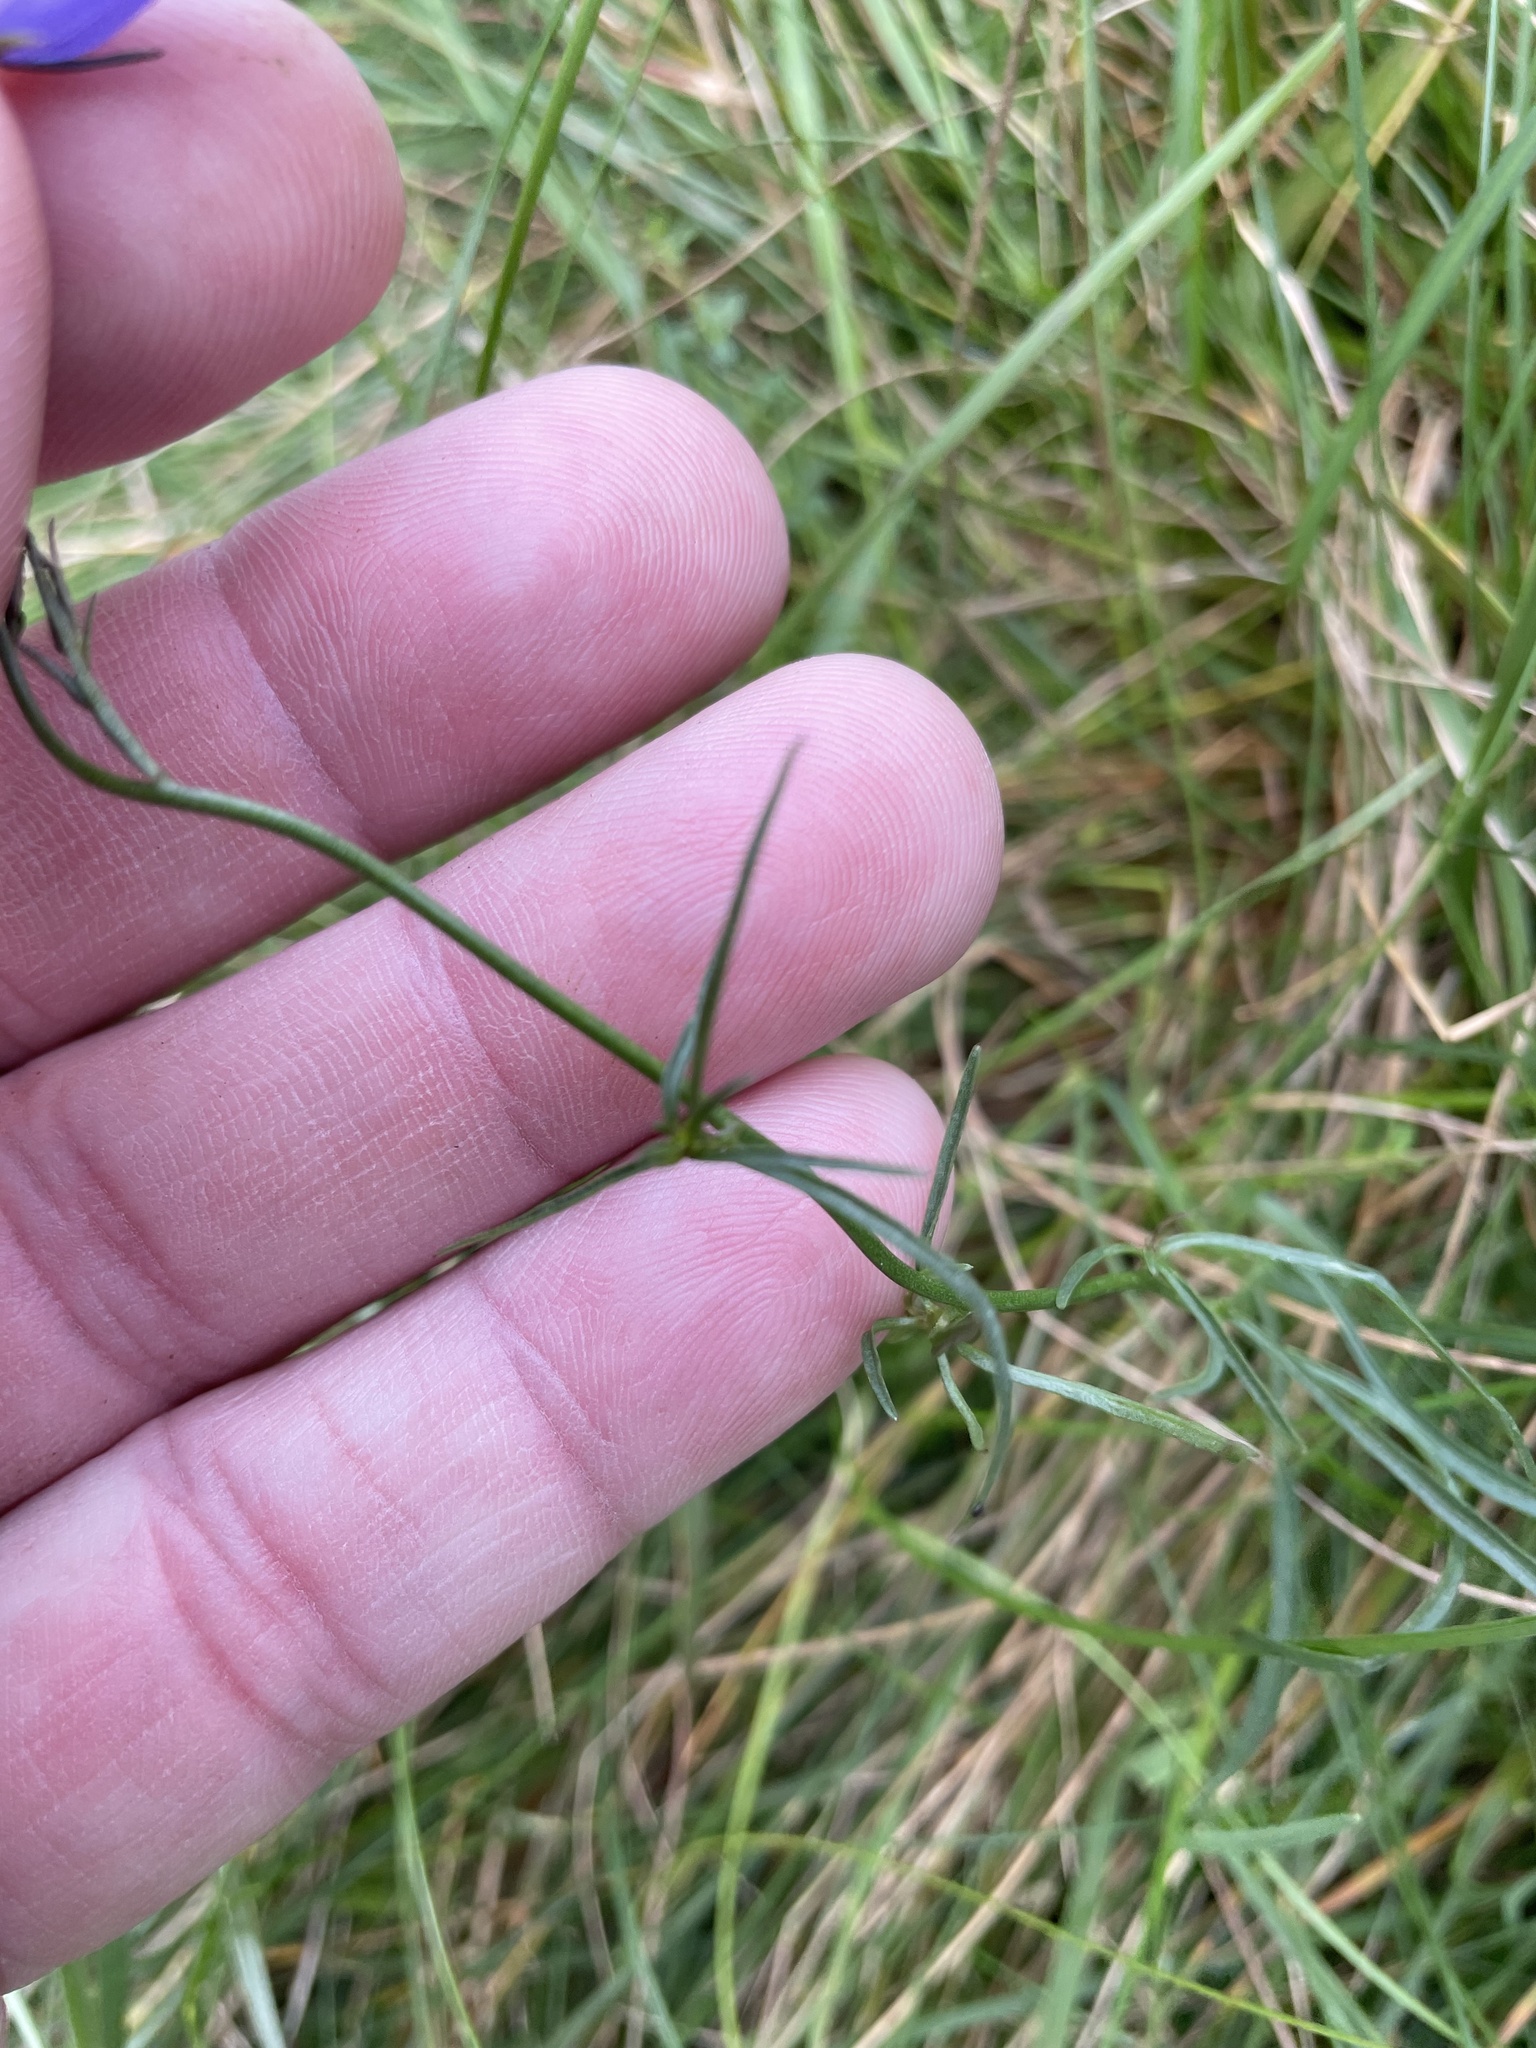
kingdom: Plantae
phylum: Tracheophyta
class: Magnoliopsida
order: Asterales
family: Campanulaceae
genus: Campanula
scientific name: Campanula rotundifolia
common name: Harebell
